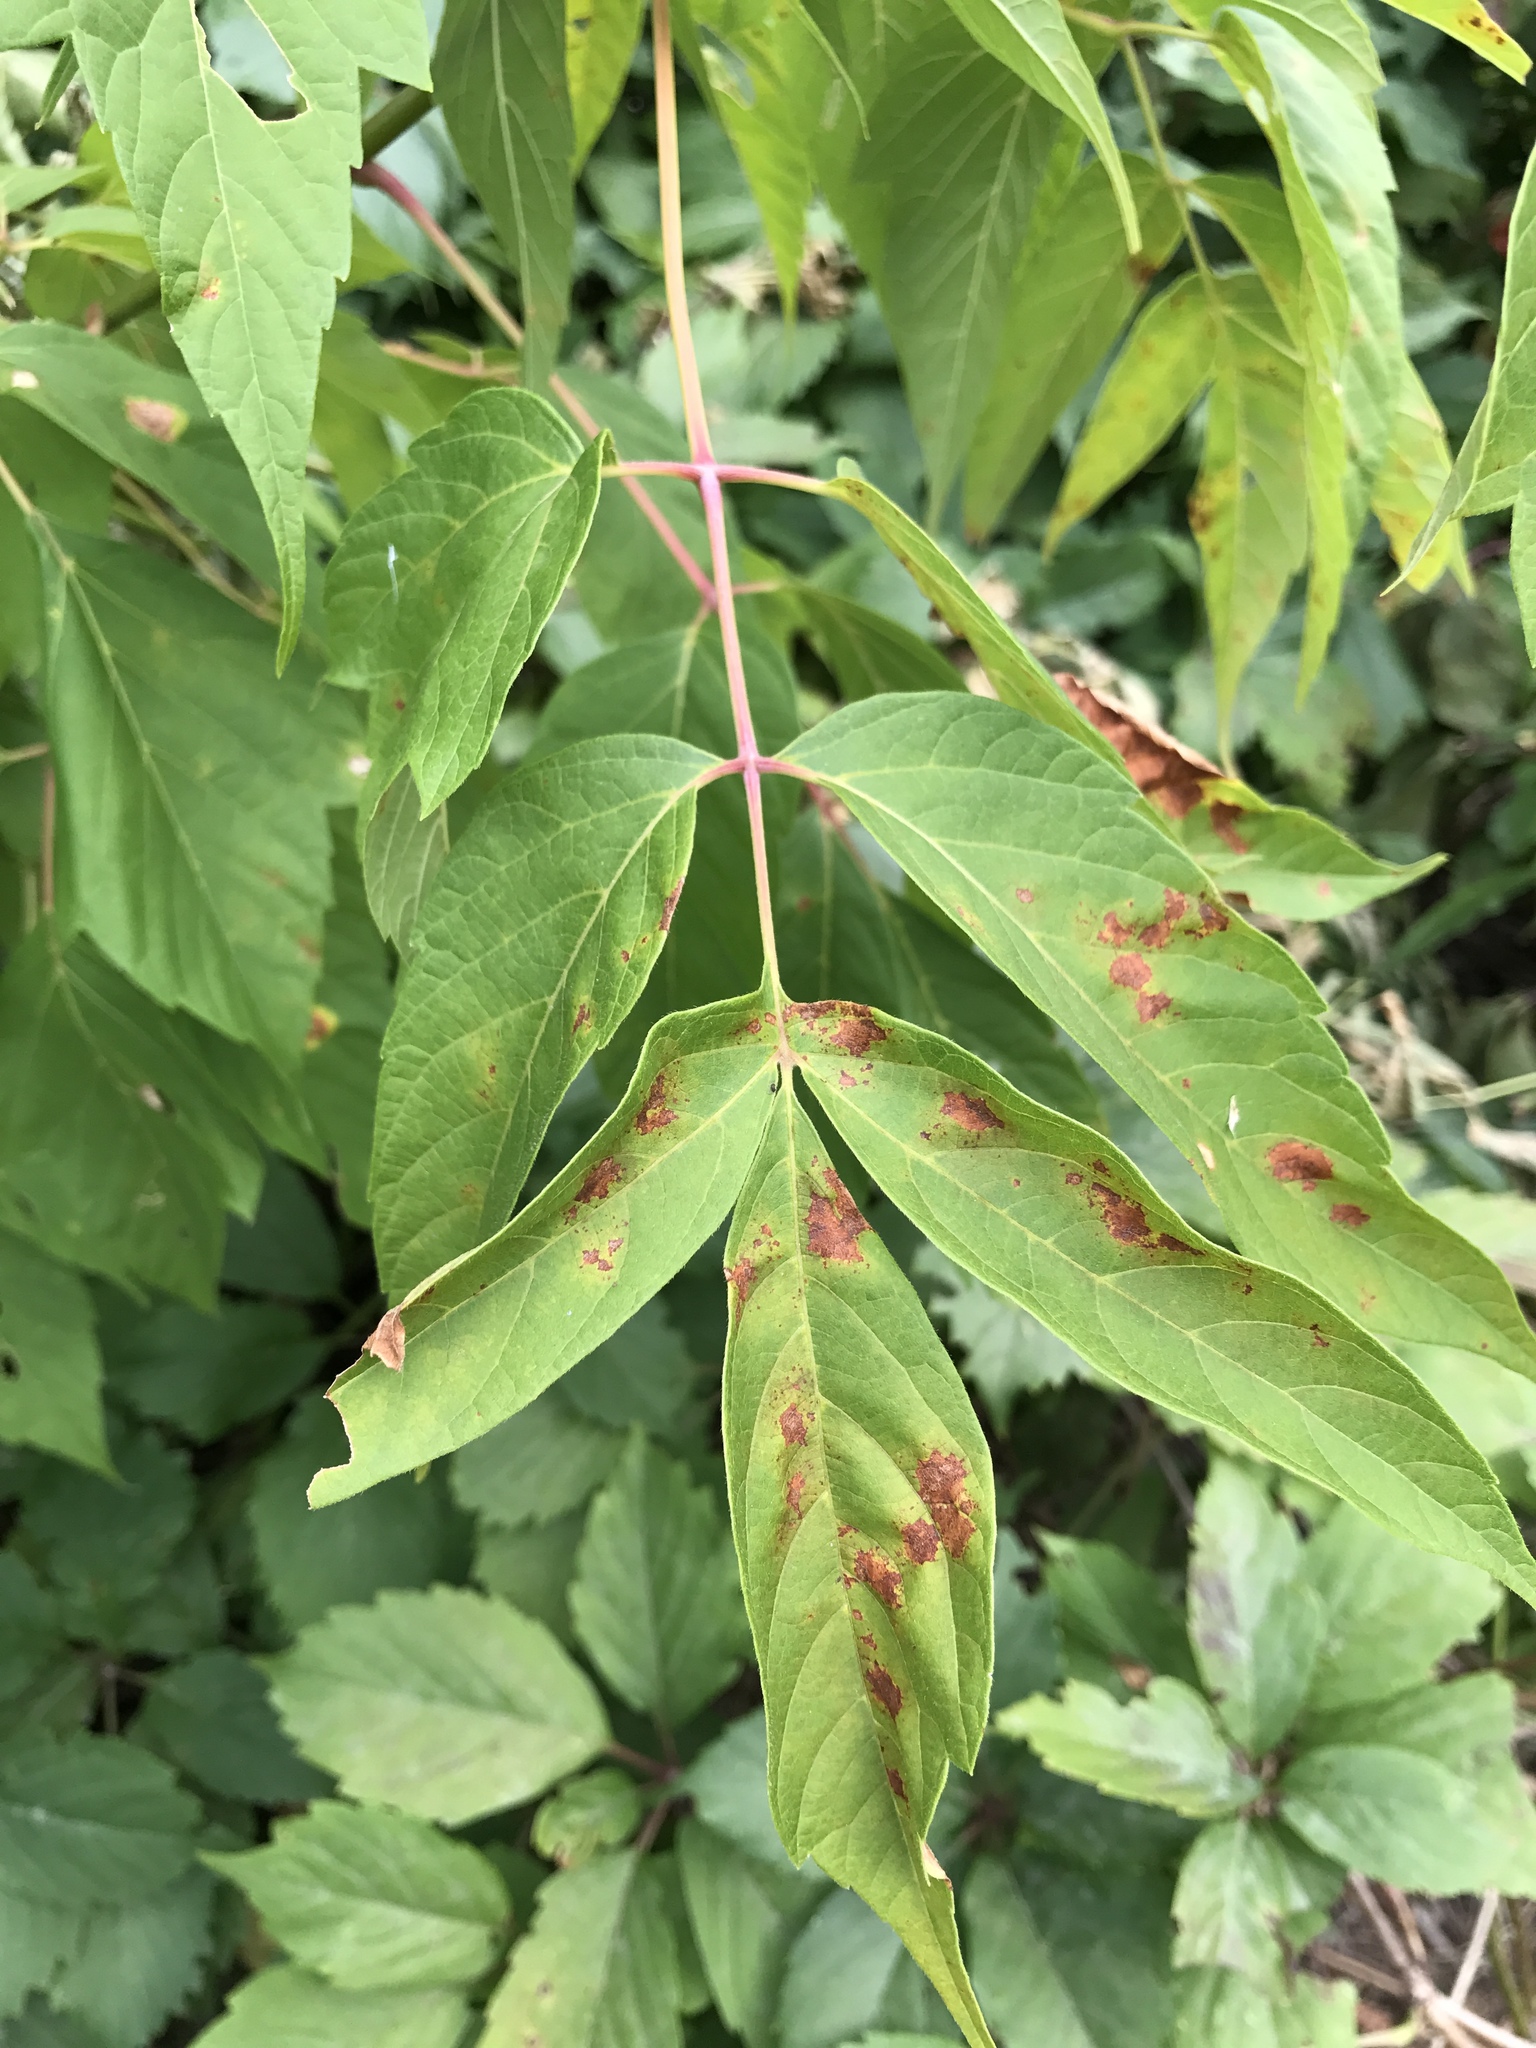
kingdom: Plantae
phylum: Tracheophyta
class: Magnoliopsida
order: Sapindales
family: Sapindaceae
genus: Acer
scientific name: Acer negundo
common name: Ashleaf maple
